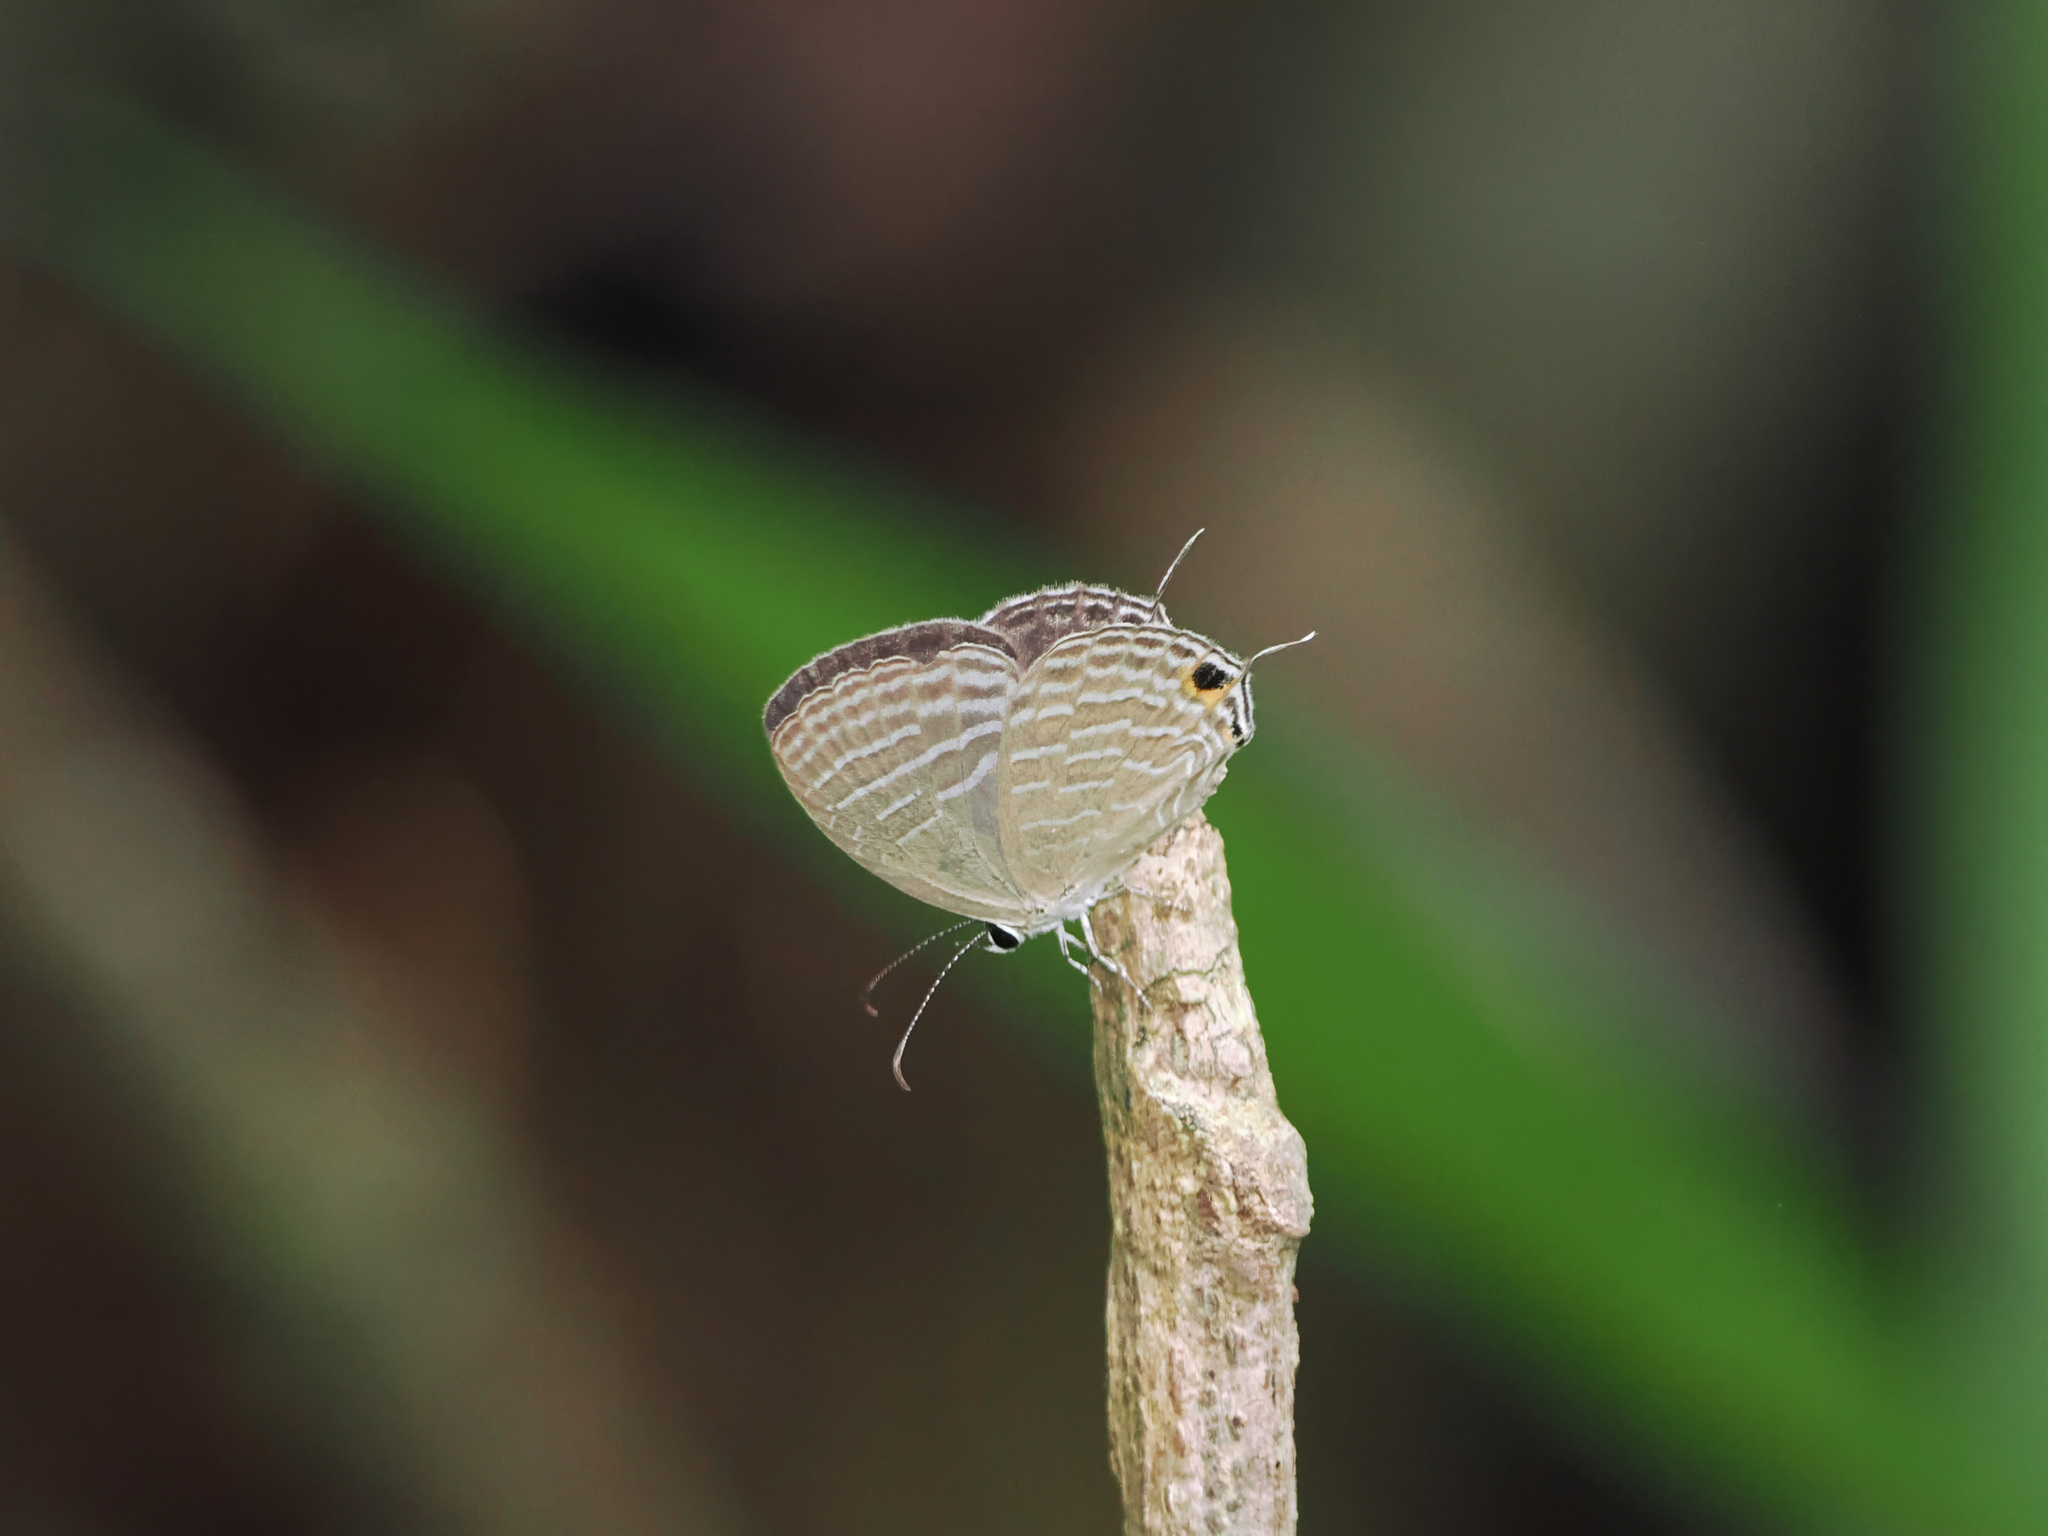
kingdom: Animalia
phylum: Arthropoda
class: Insecta
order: Lepidoptera
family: Lycaenidae
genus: Jamides
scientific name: Jamides celeno
